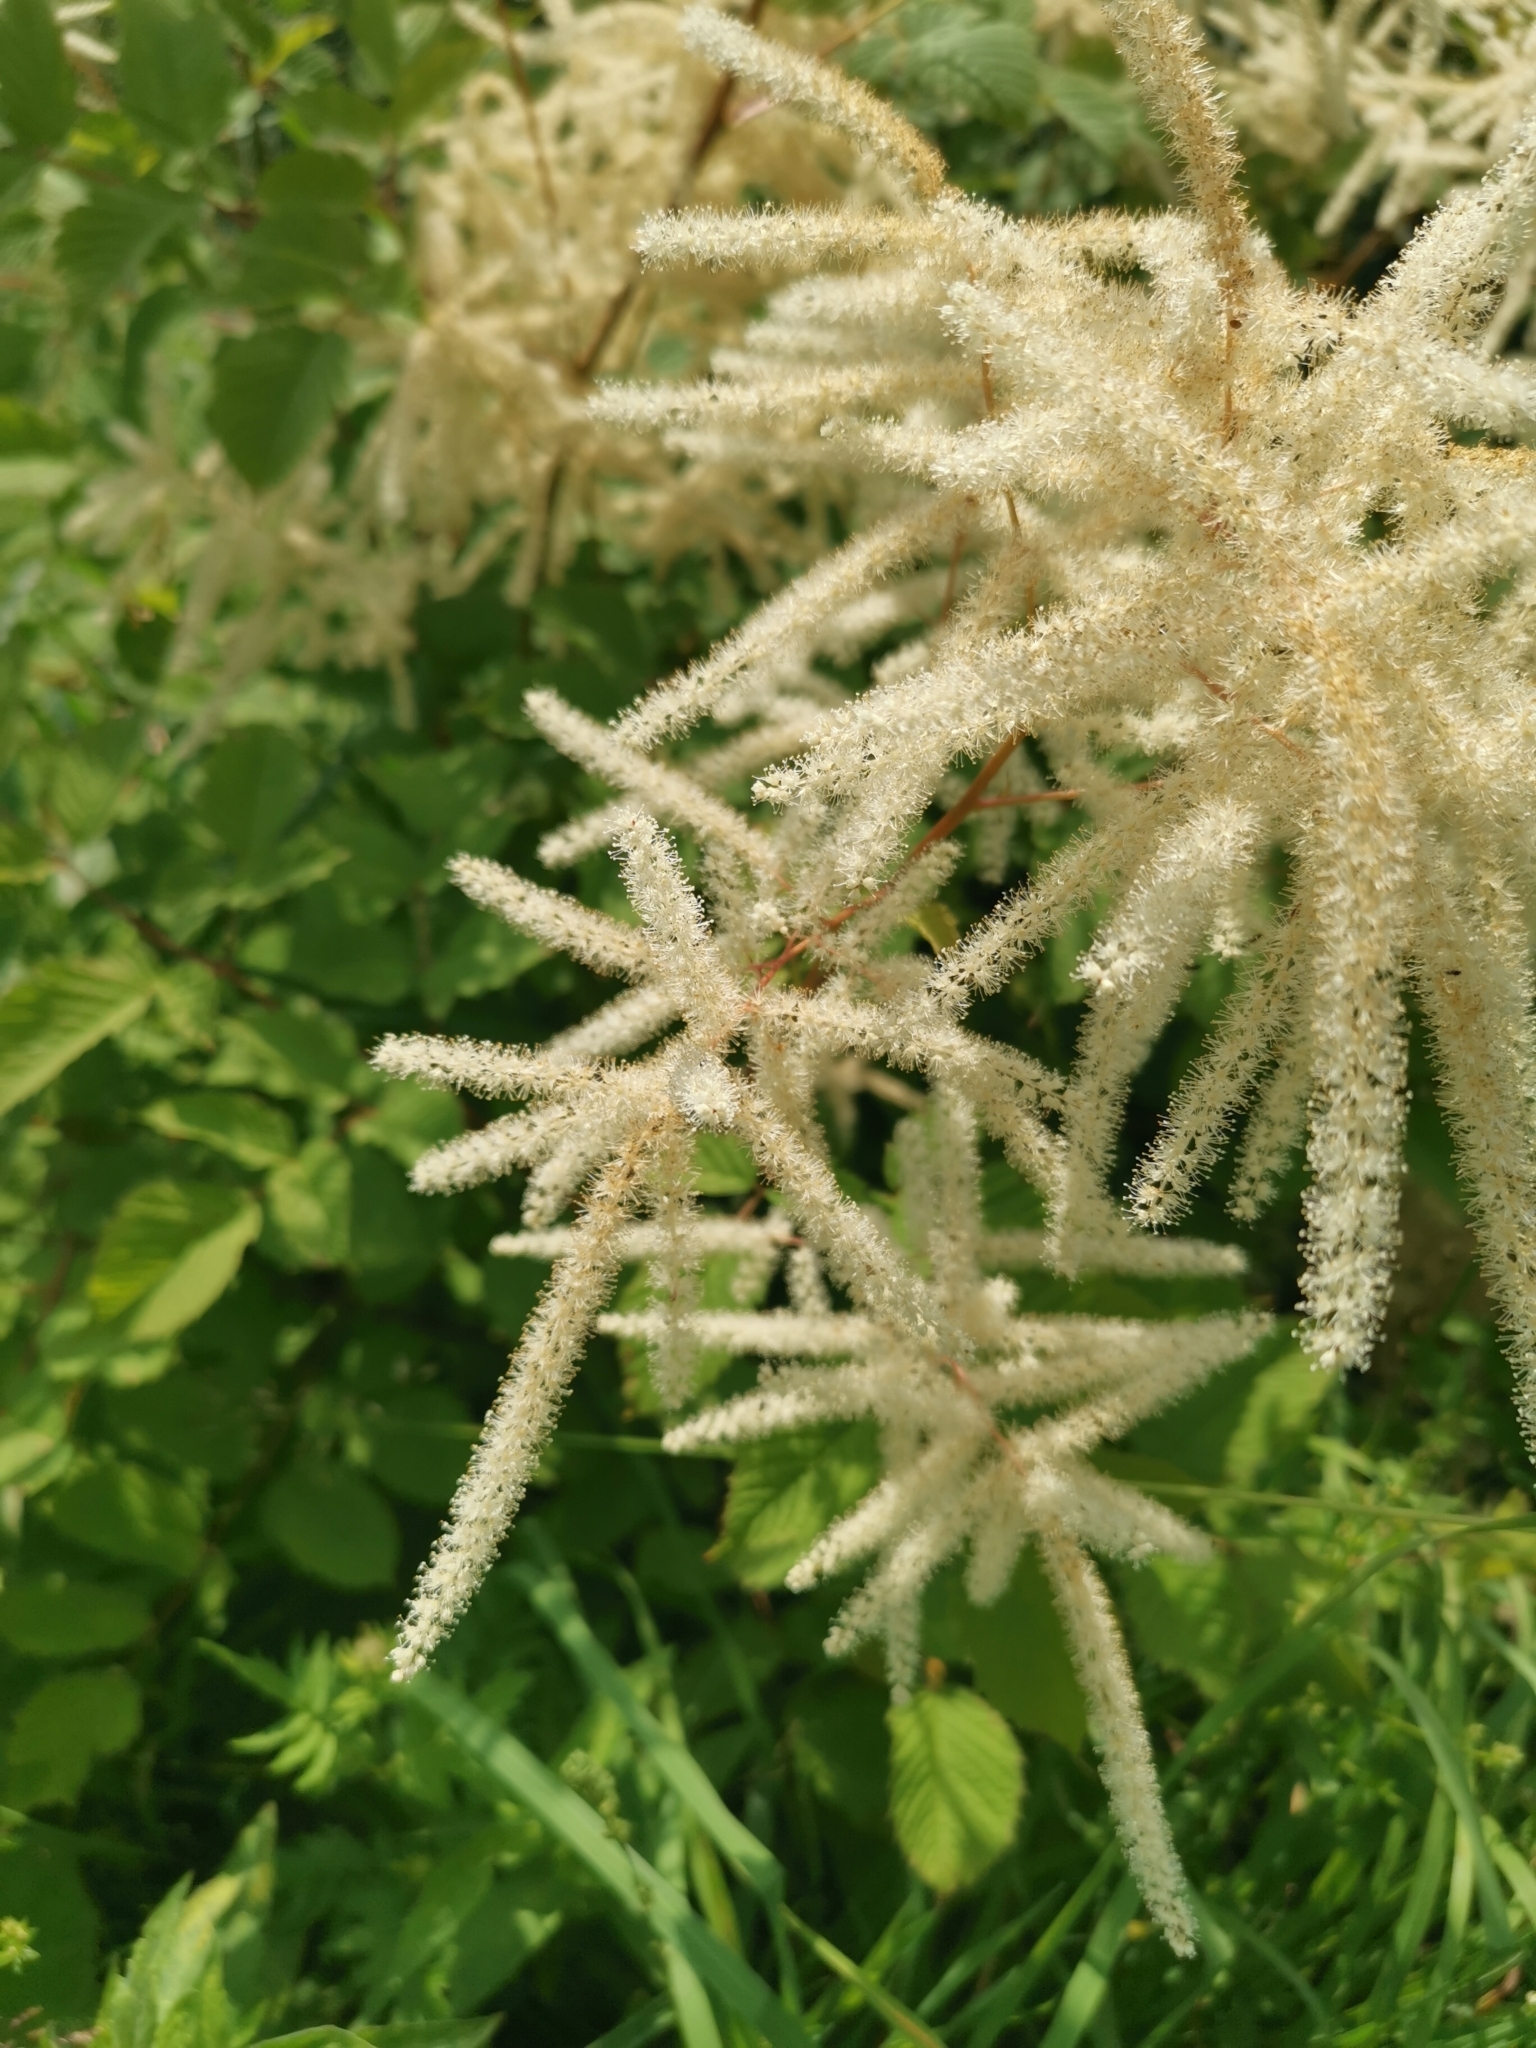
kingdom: Plantae
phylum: Tracheophyta
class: Magnoliopsida
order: Rosales
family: Rosaceae
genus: Aruncus
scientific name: Aruncus dioicus
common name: Buck's-beard
